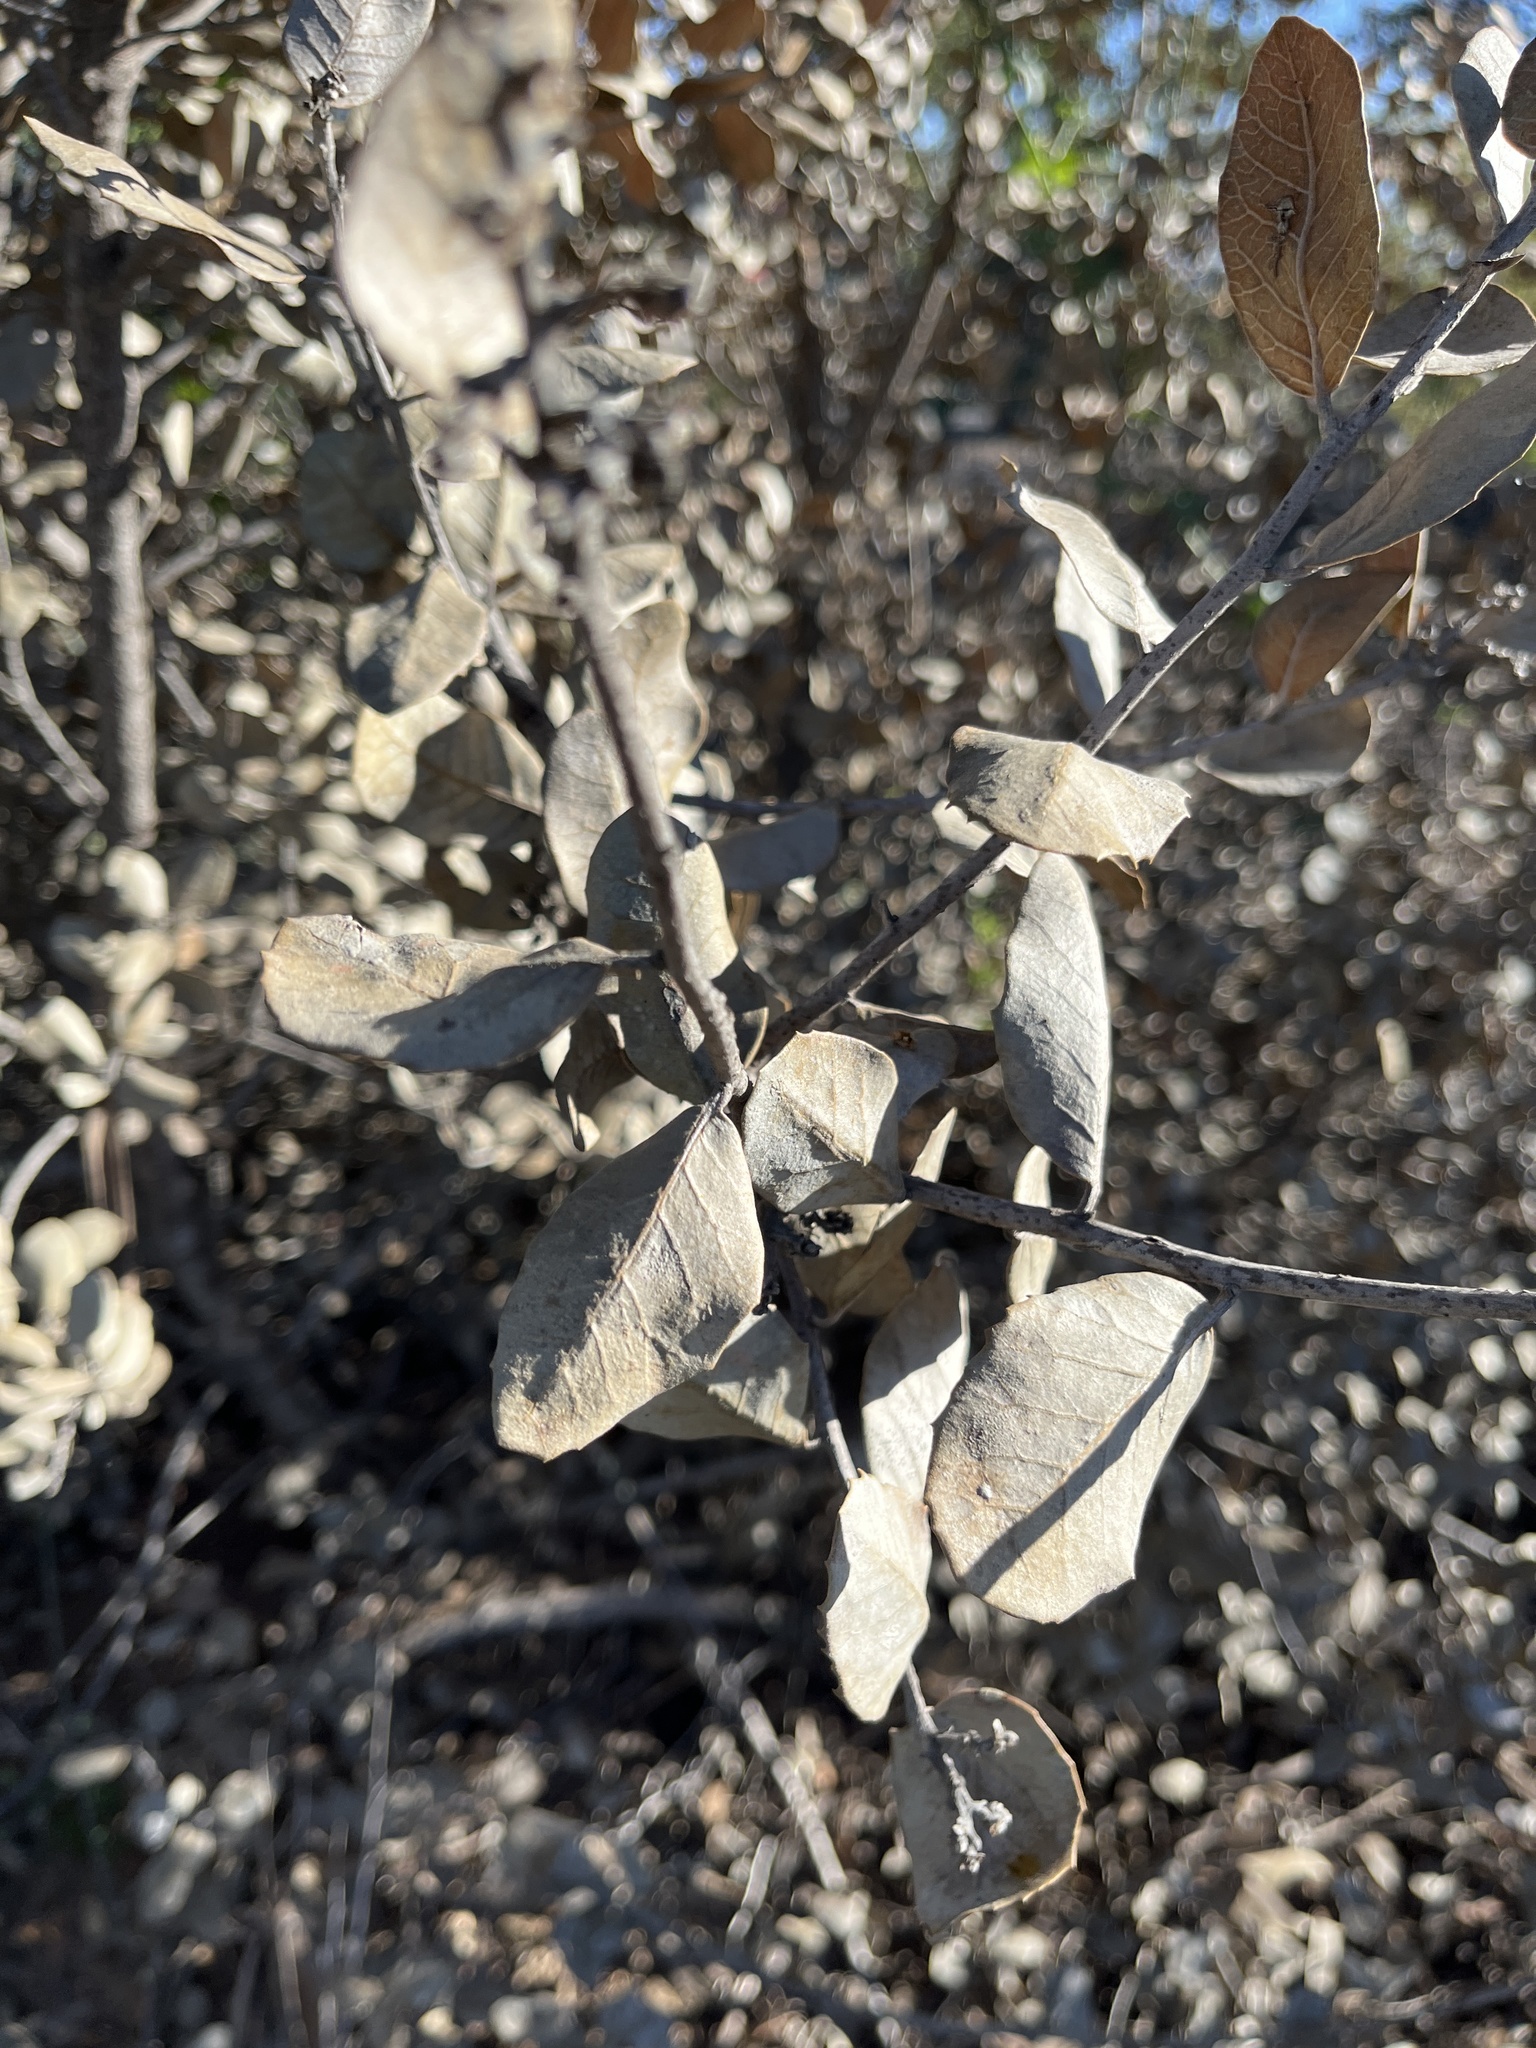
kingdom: Plantae
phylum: Tracheophyta
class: Magnoliopsida
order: Sapindales
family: Anacardiaceae
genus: Rhus
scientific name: Rhus integrifolia
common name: Lemonade sumac
